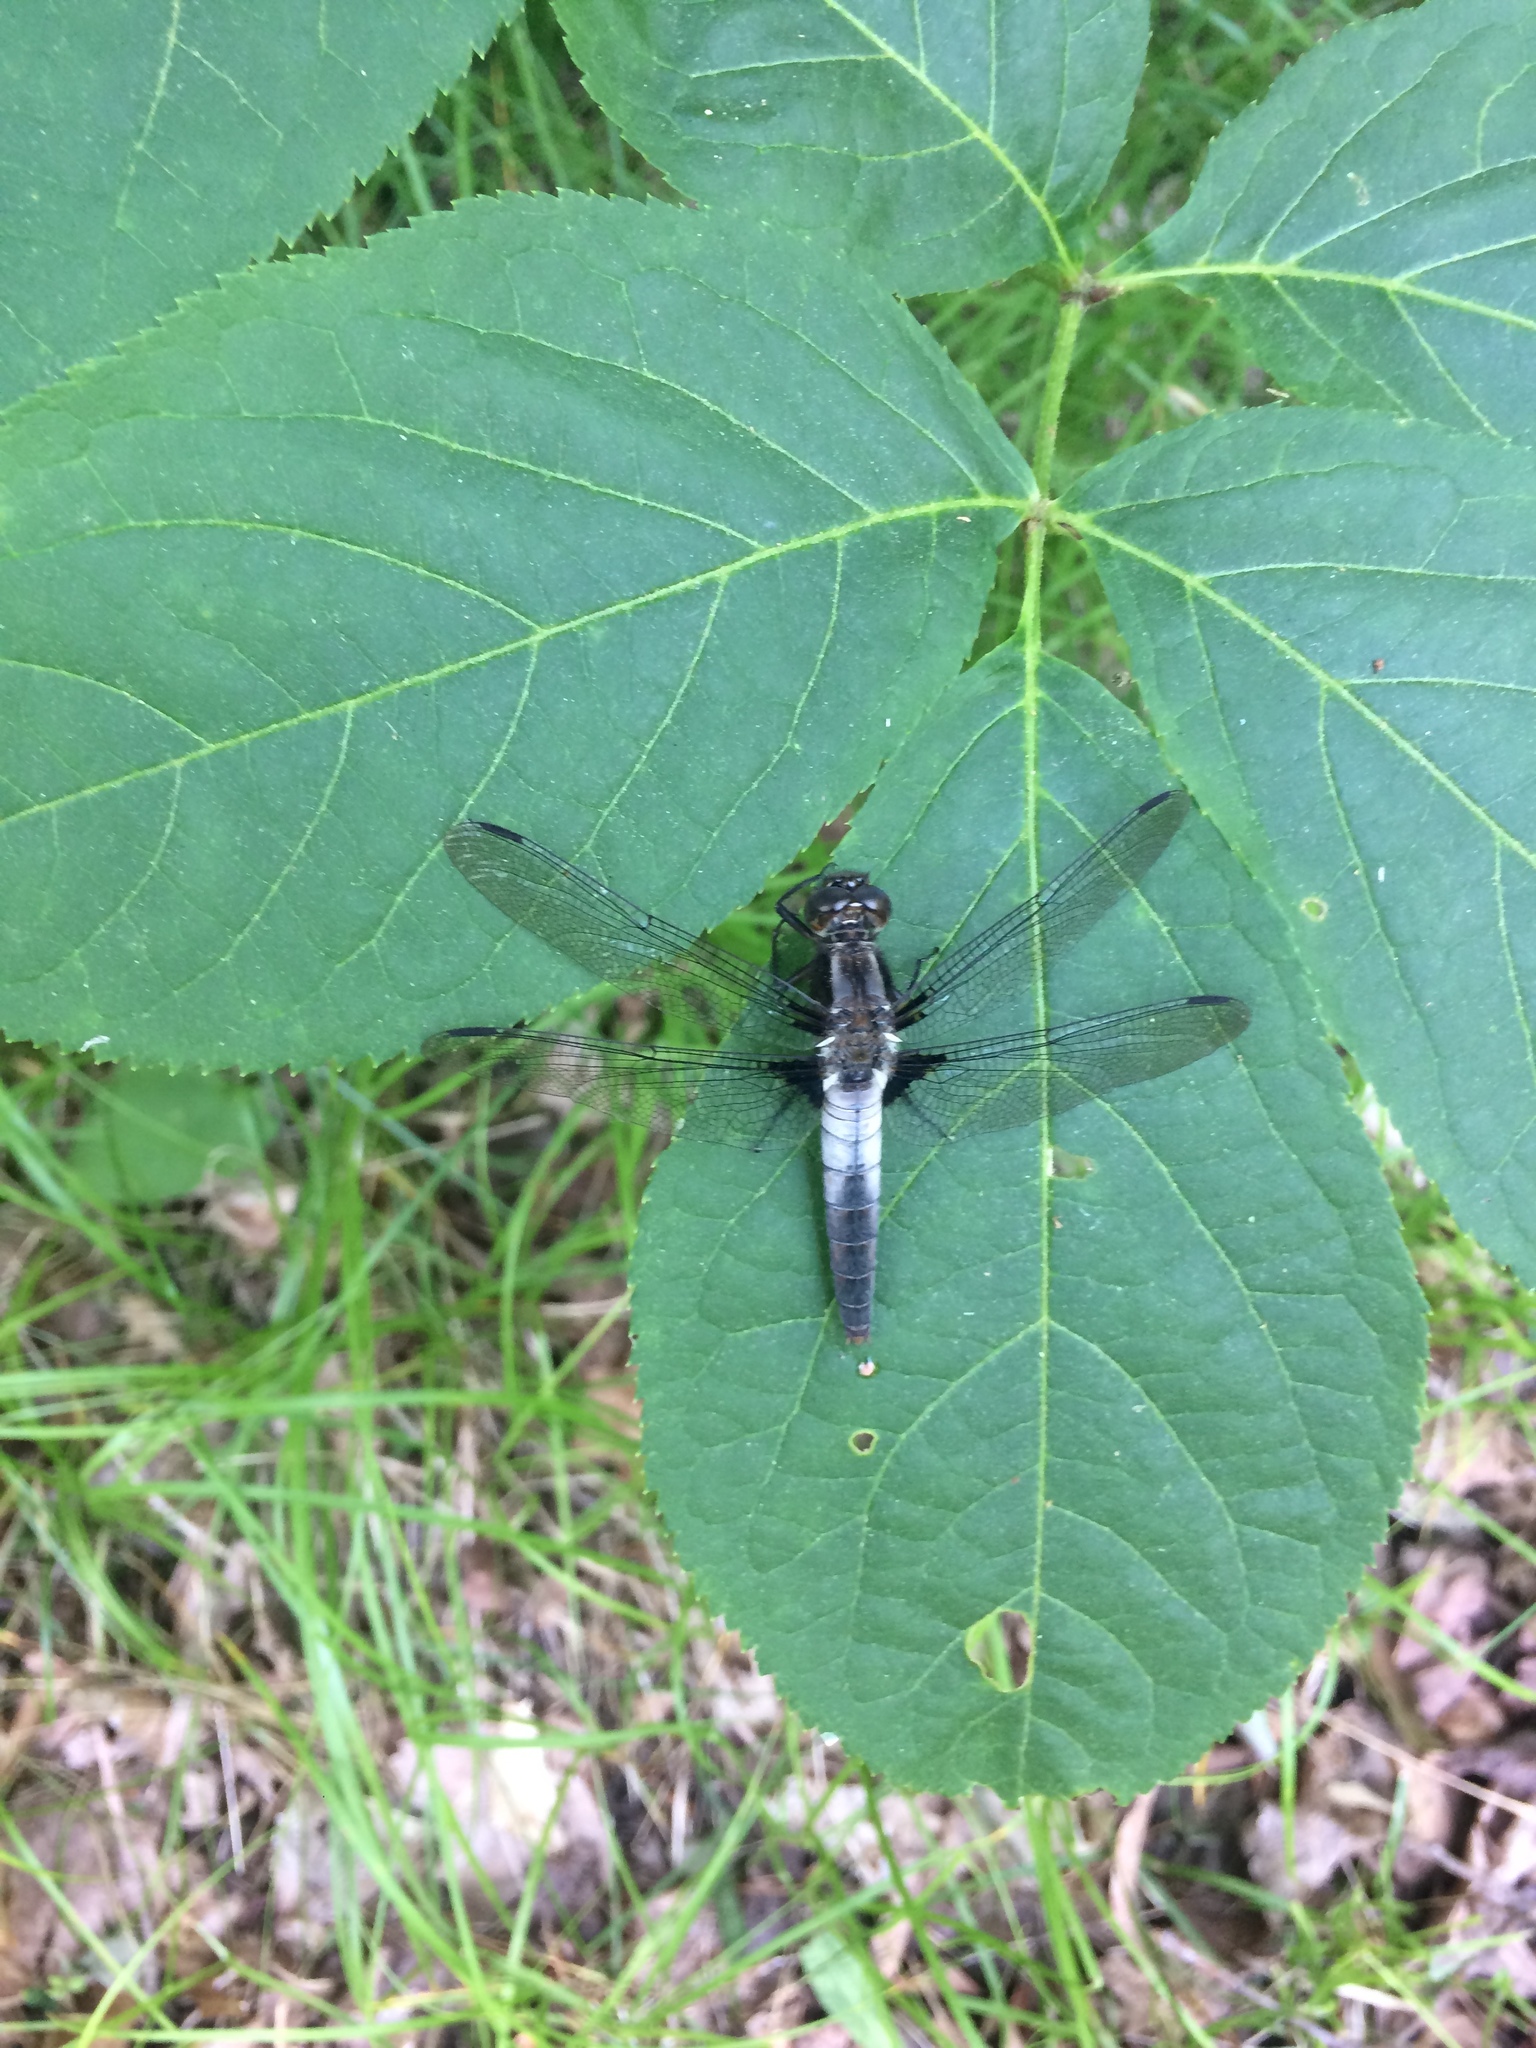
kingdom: Animalia
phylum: Arthropoda
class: Insecta
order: Odonata
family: Libellulidae
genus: Ladona
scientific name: Ladona julia
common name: Chalk-fronted corporal
